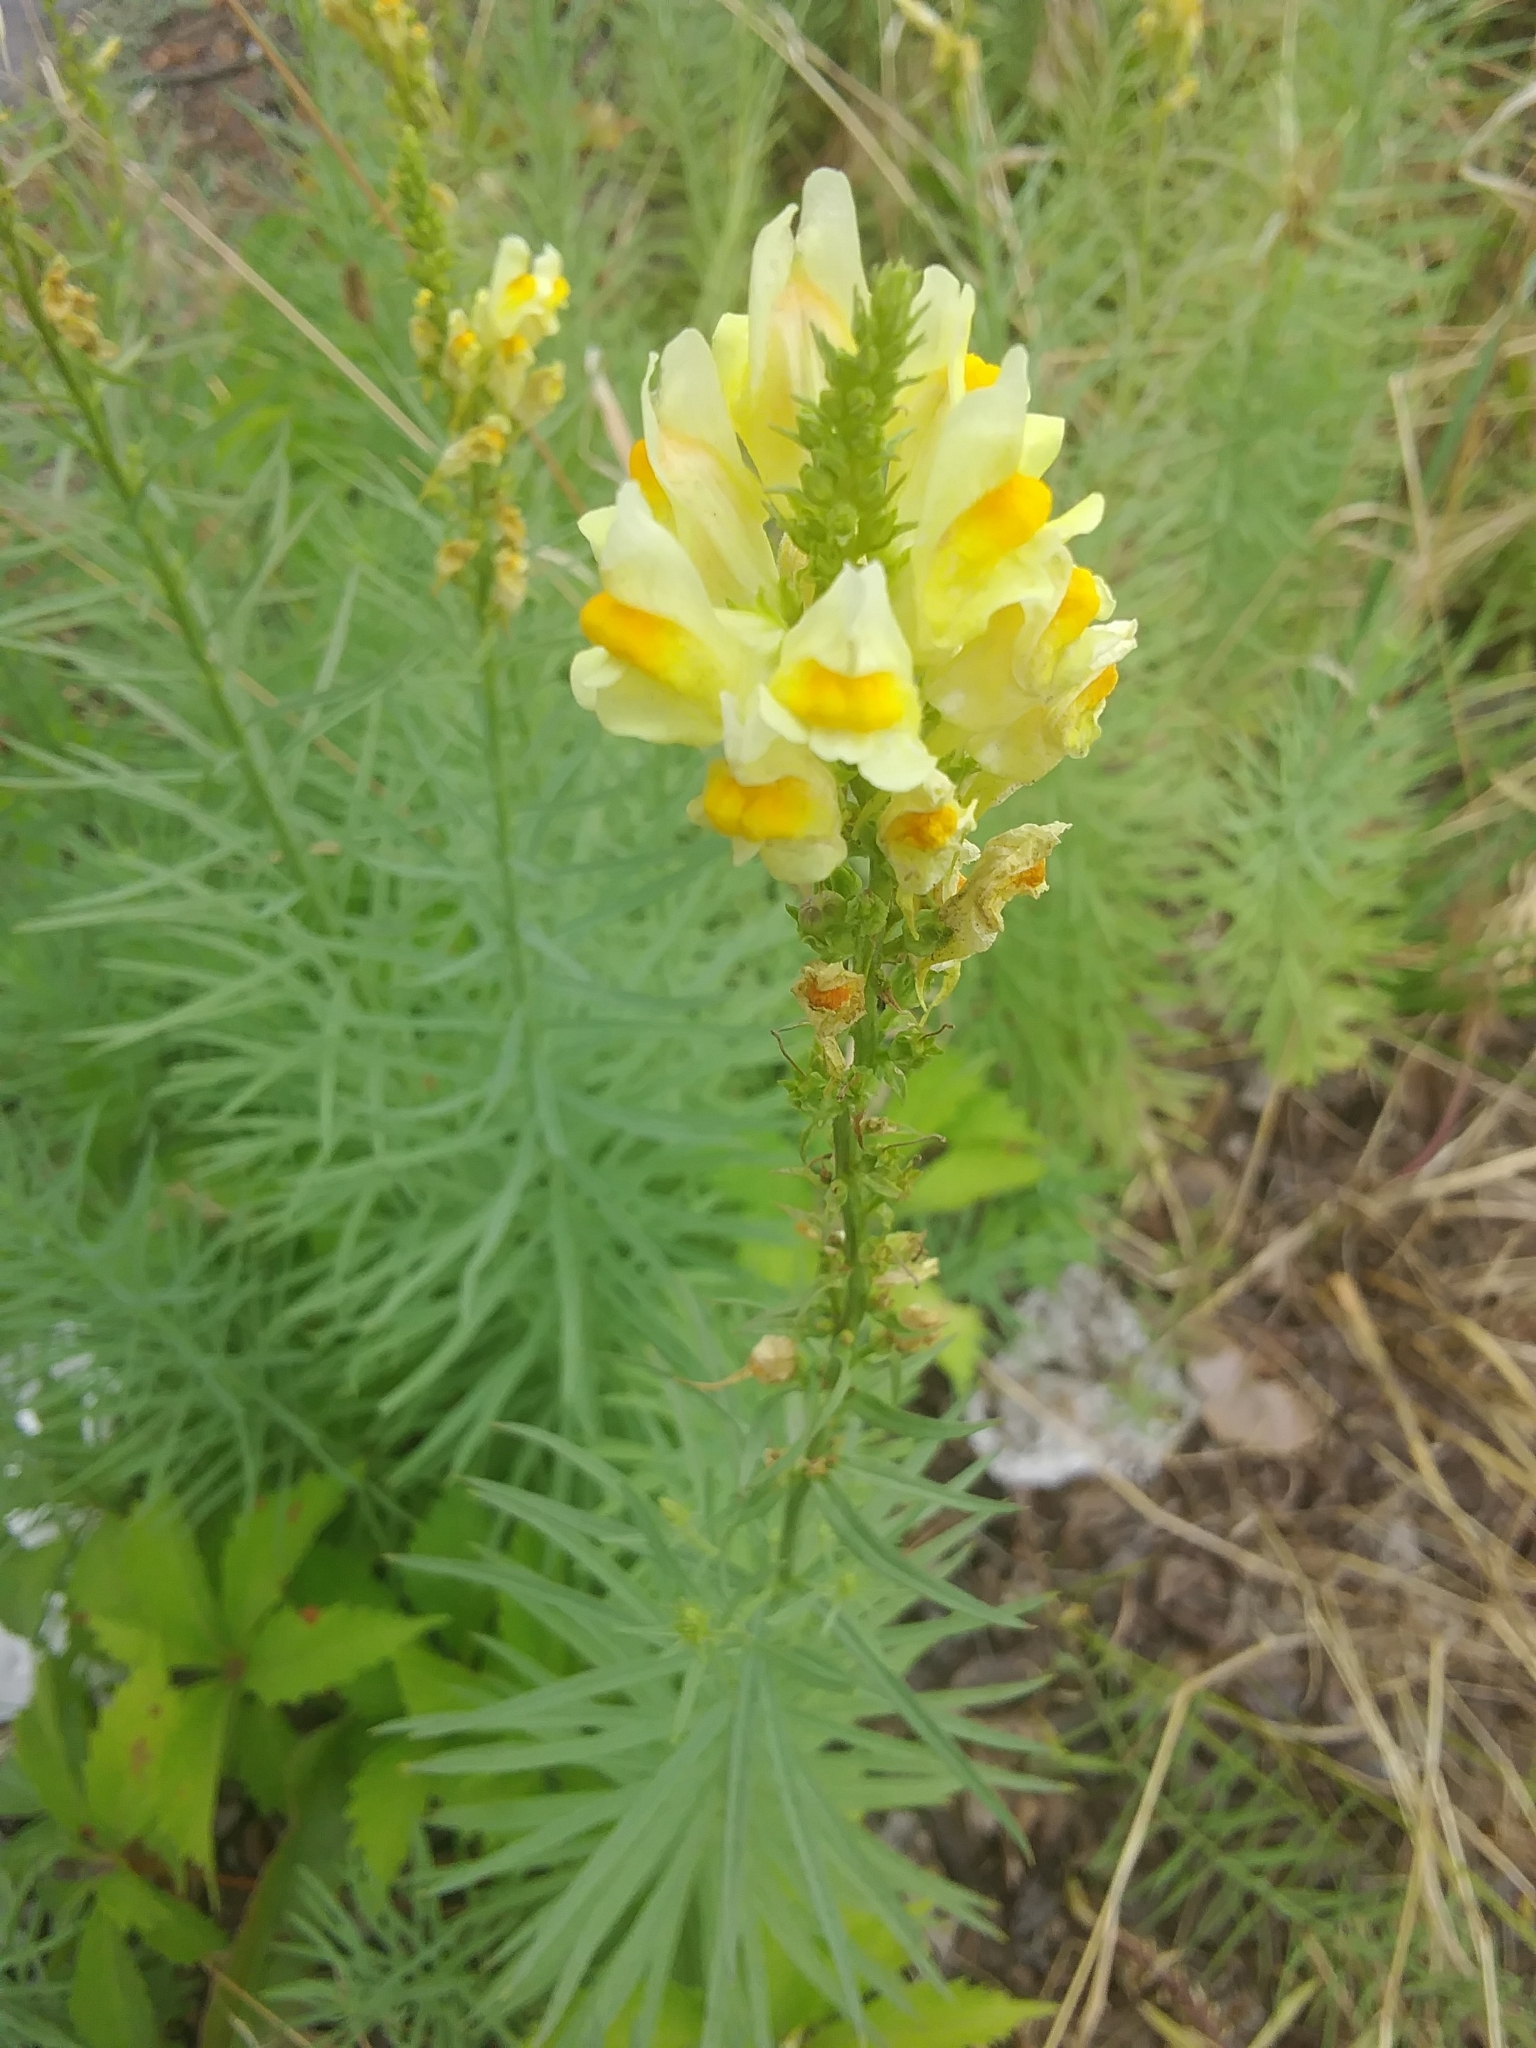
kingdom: Plantae
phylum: Tracheophyta
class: Magnoliopsida
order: Lamiales
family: Plantaginaceae
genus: Linaria
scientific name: Linaria vulgaris
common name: Butter and eggs
